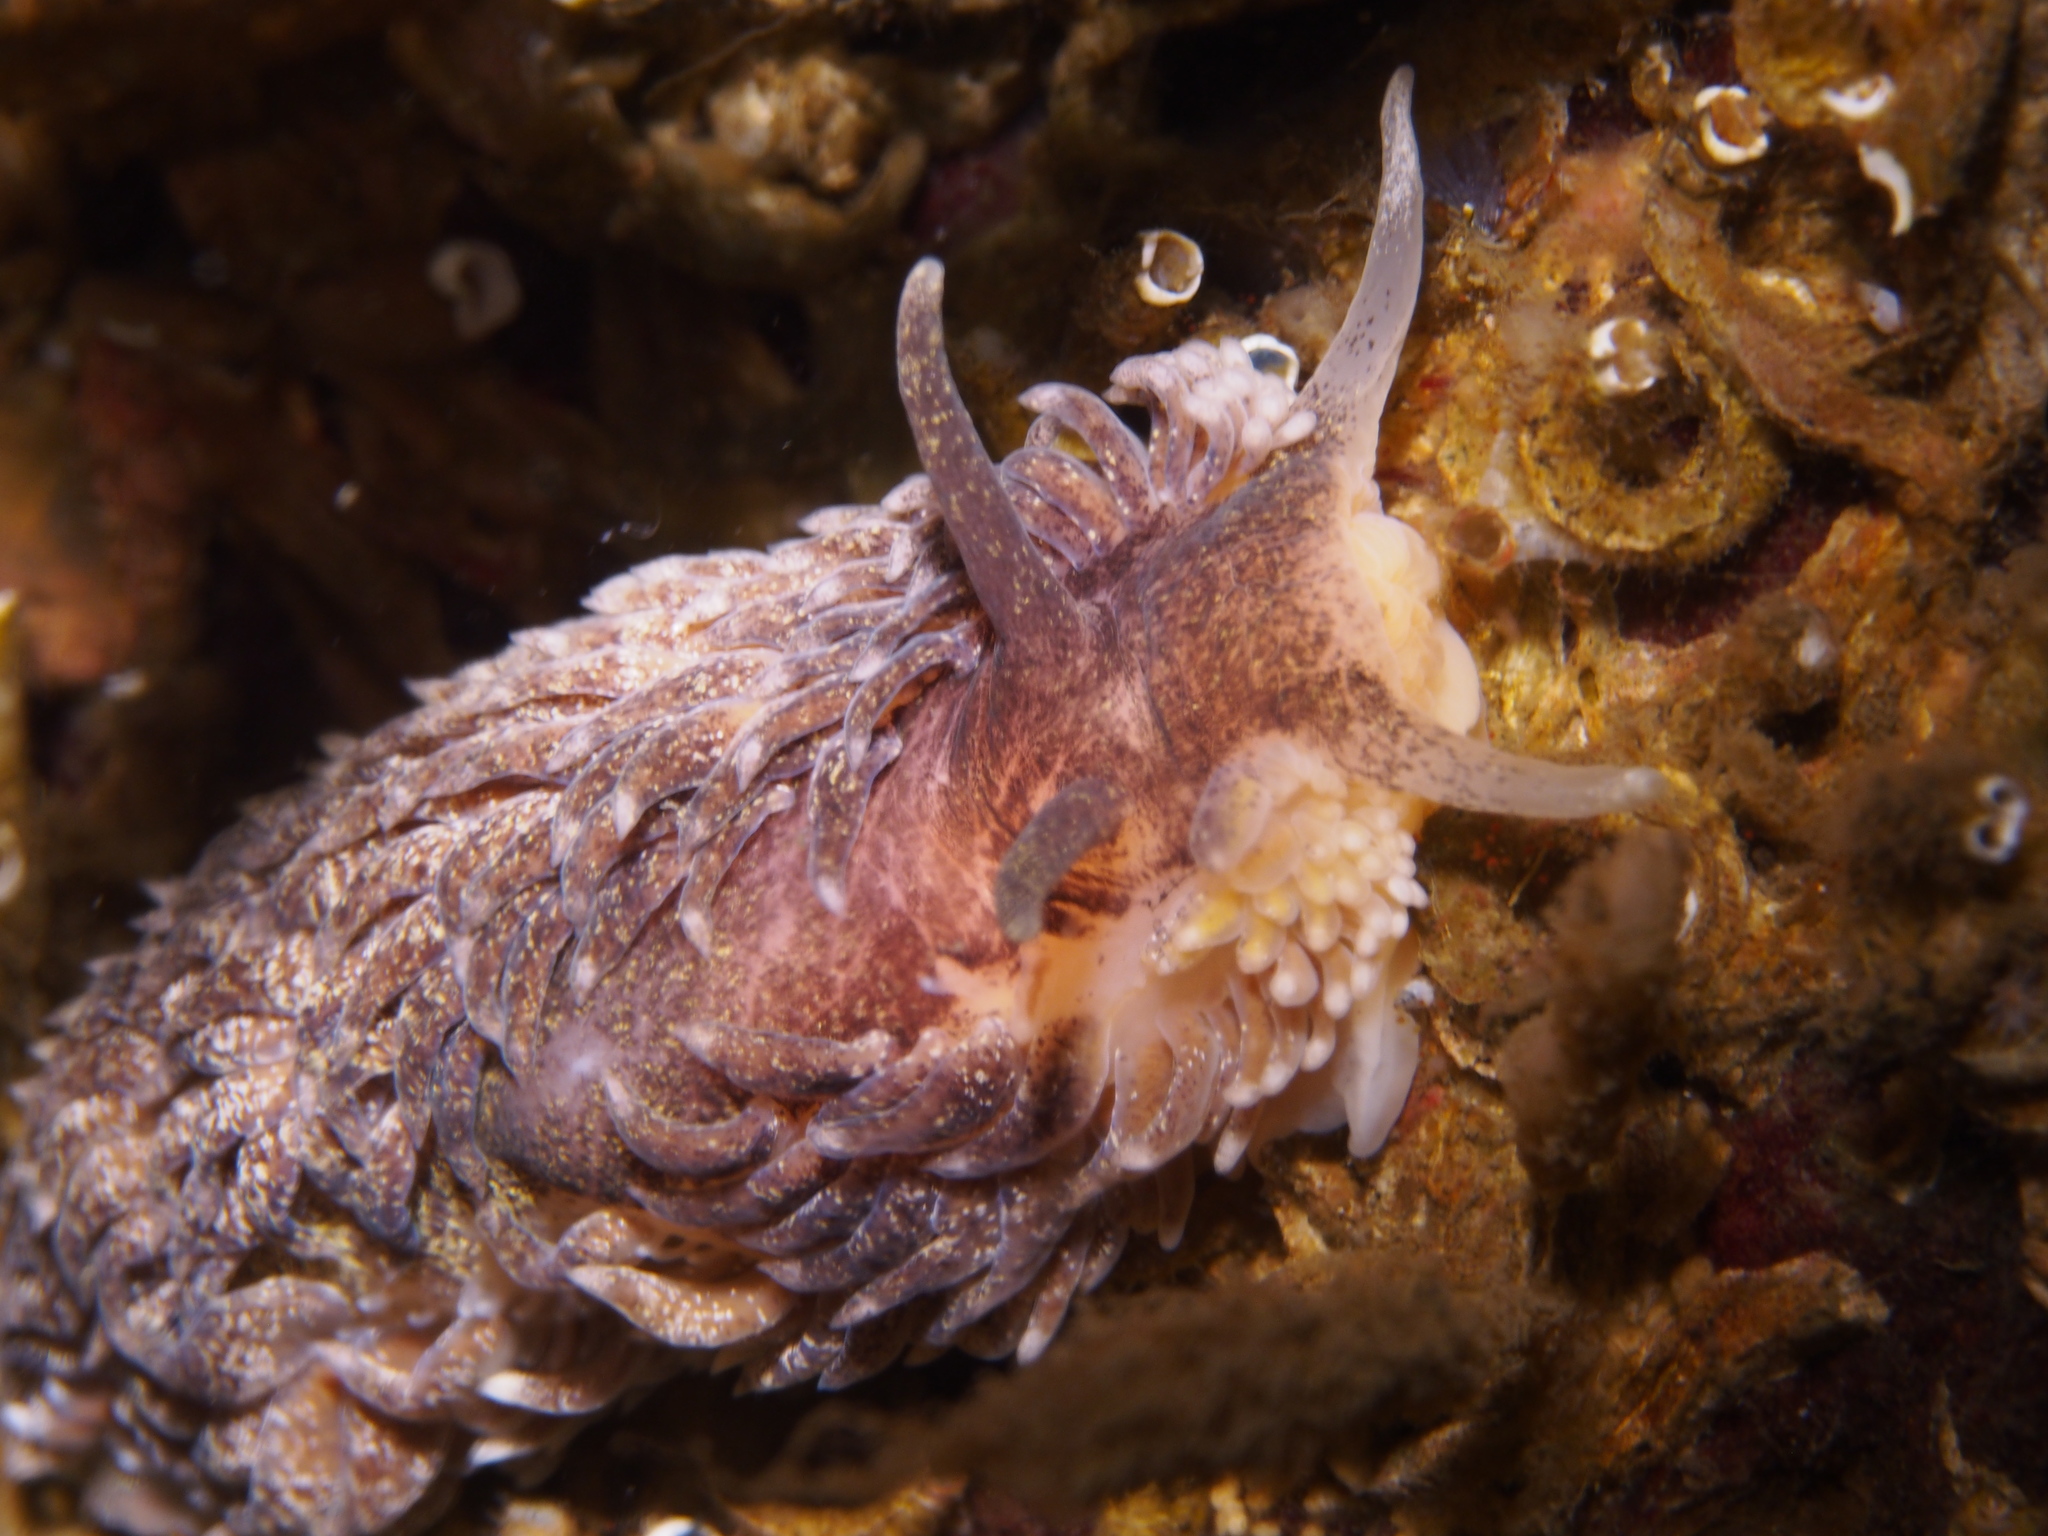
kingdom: Animalia
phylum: Mollusca
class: Gastropoda
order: Nudibranchia
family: Aeolidiidae
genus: Aeolidia
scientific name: Aeolidia papillosa
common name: Common grey sea slug
